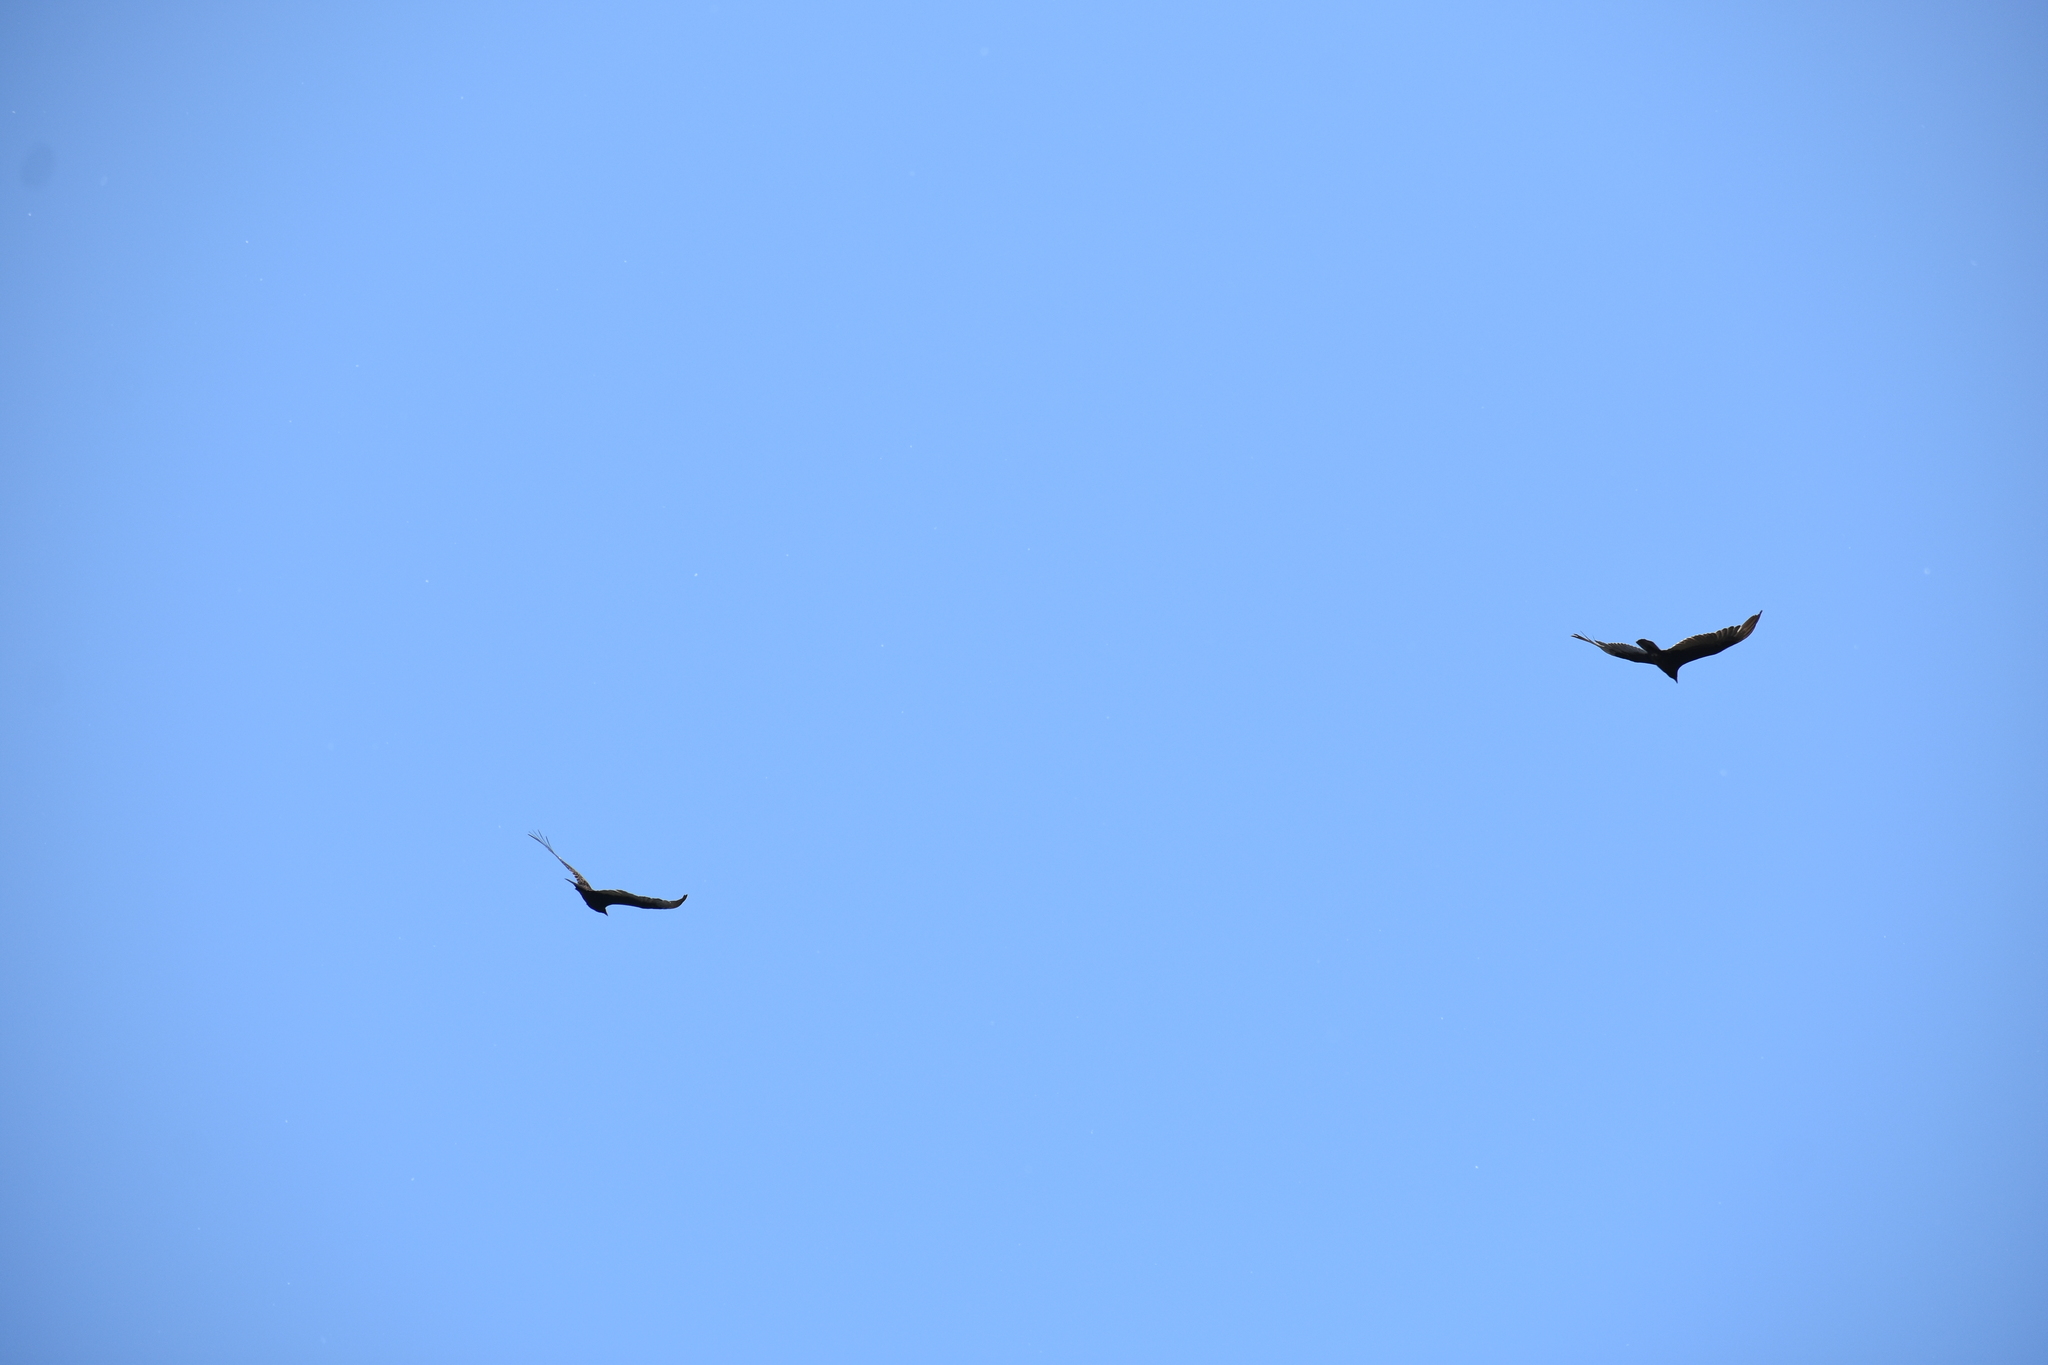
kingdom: Animalia
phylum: Chordata
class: Aves
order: Accipitriformes
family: Cathartidae
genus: Cathartes
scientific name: Cathartes aura
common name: Turkey vulture
